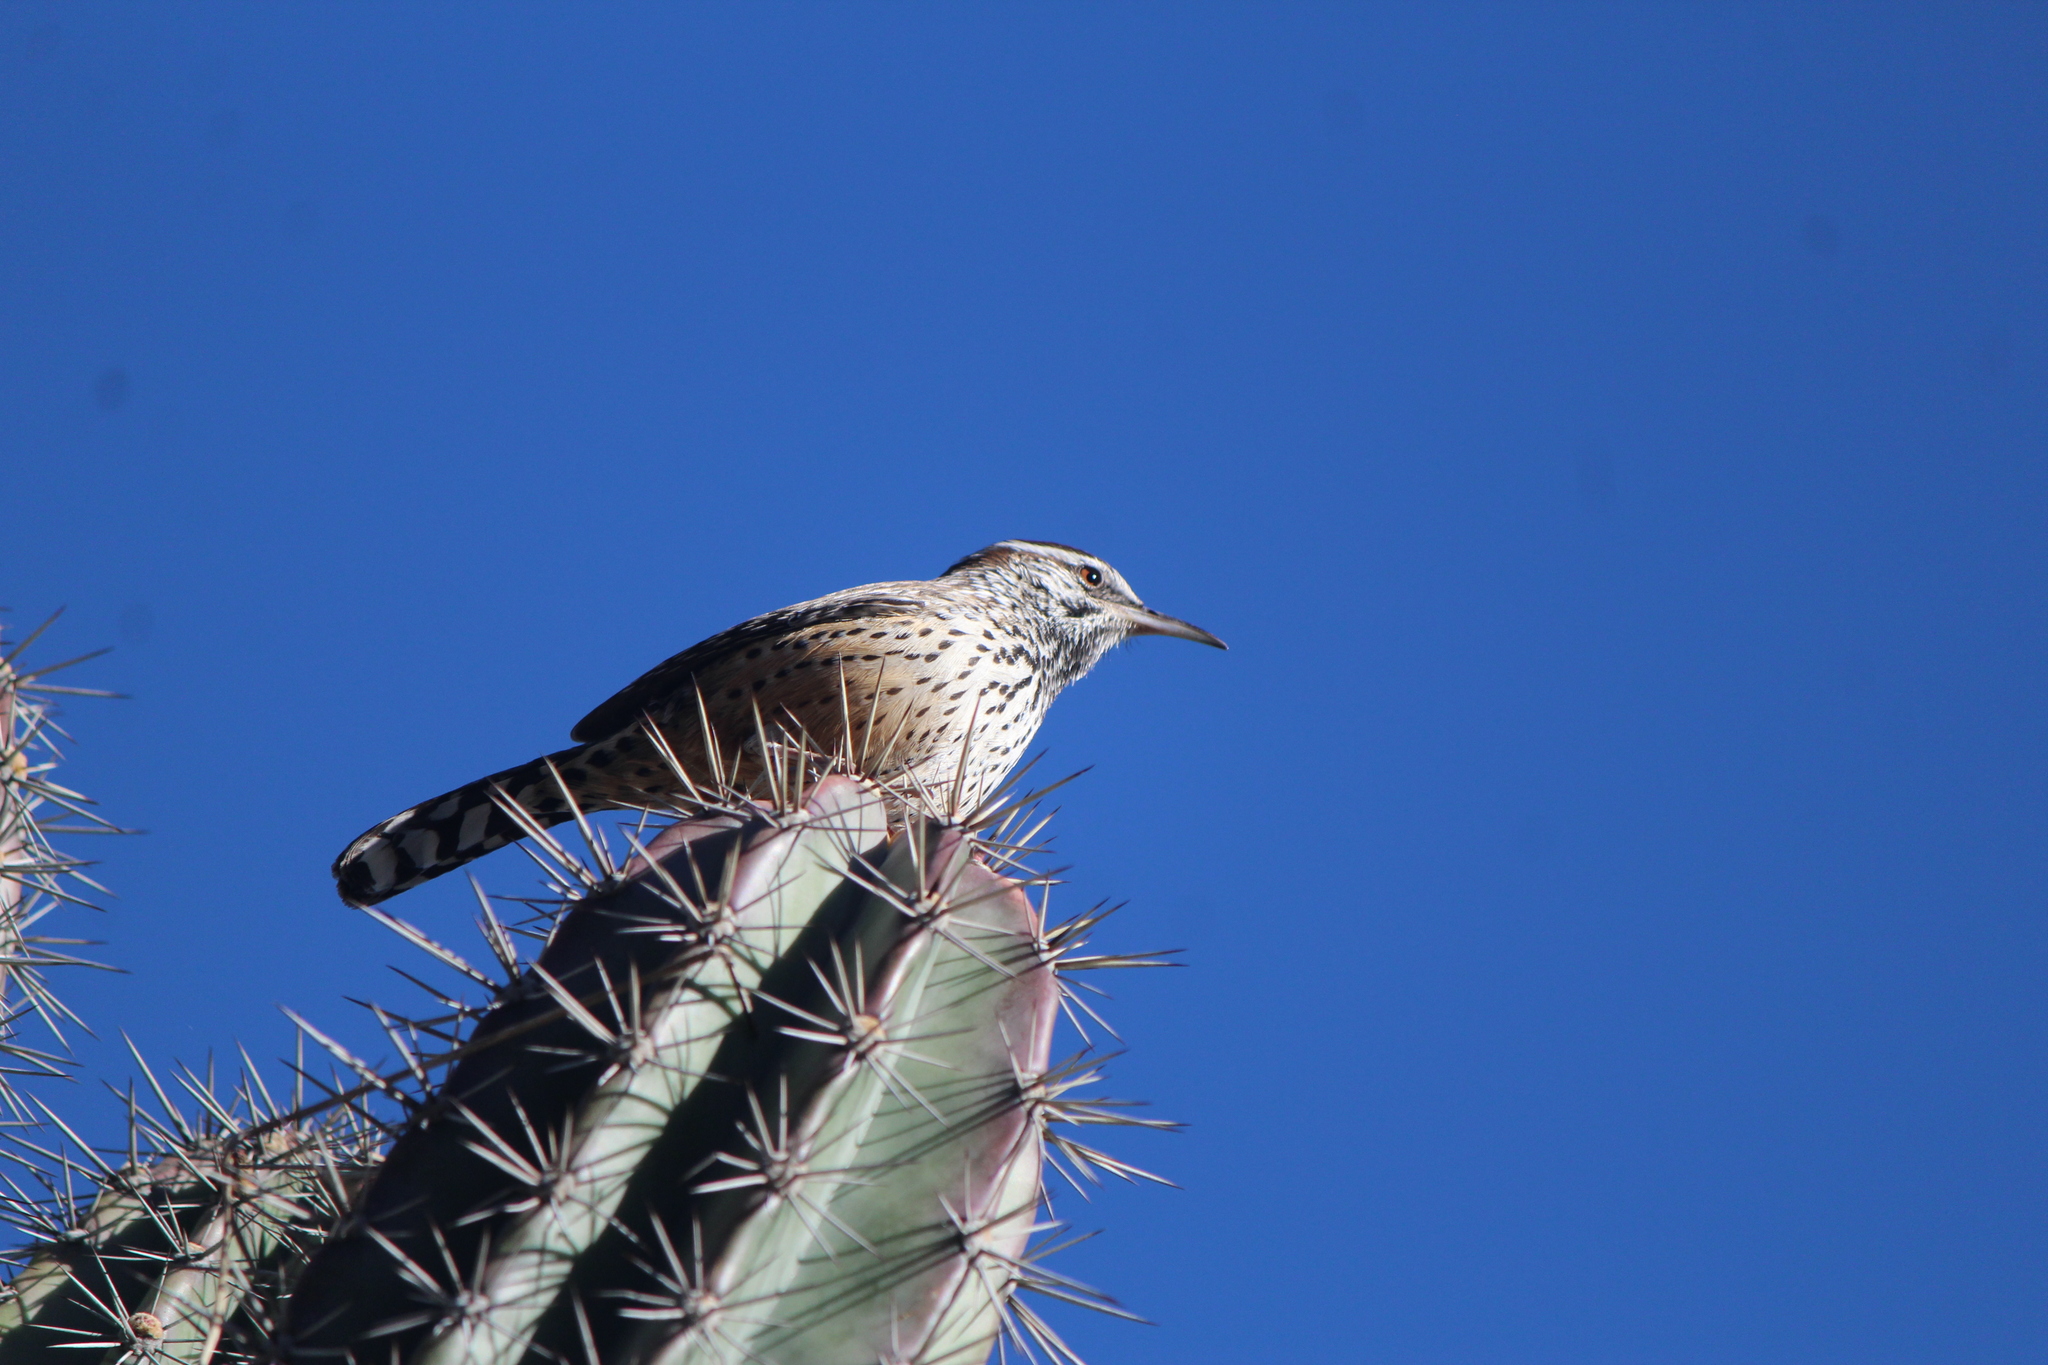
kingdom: Animalia
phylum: Chordata
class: Aves
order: Passeriformes
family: Troglodytidae
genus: Campylorhynchus
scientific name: Campylorhynchus brunneicapillus
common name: Cactus wren
